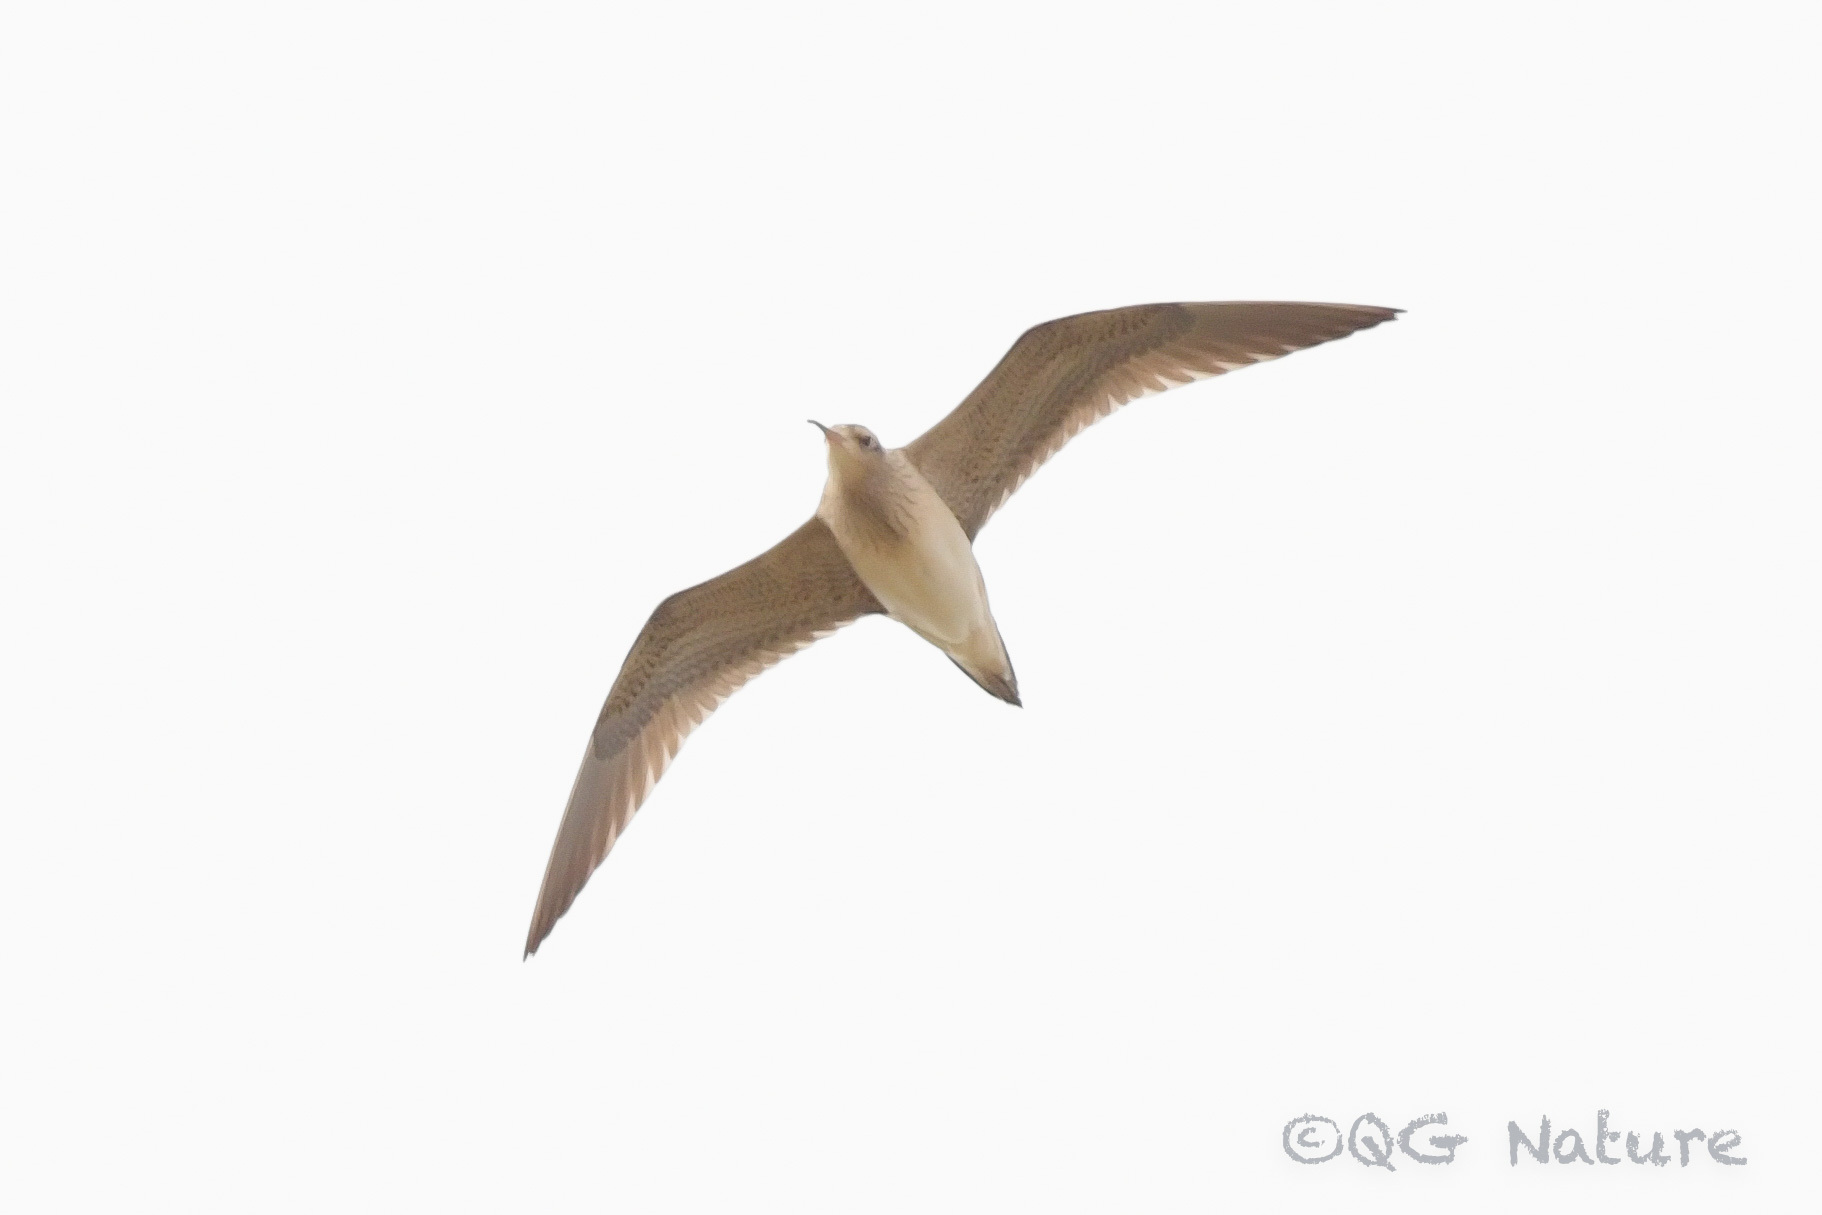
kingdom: Animalia
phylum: Chordata
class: Aves
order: Charadriiformes
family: Scolopacidae
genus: Numenius
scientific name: Numenius minutus
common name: Little curlew
